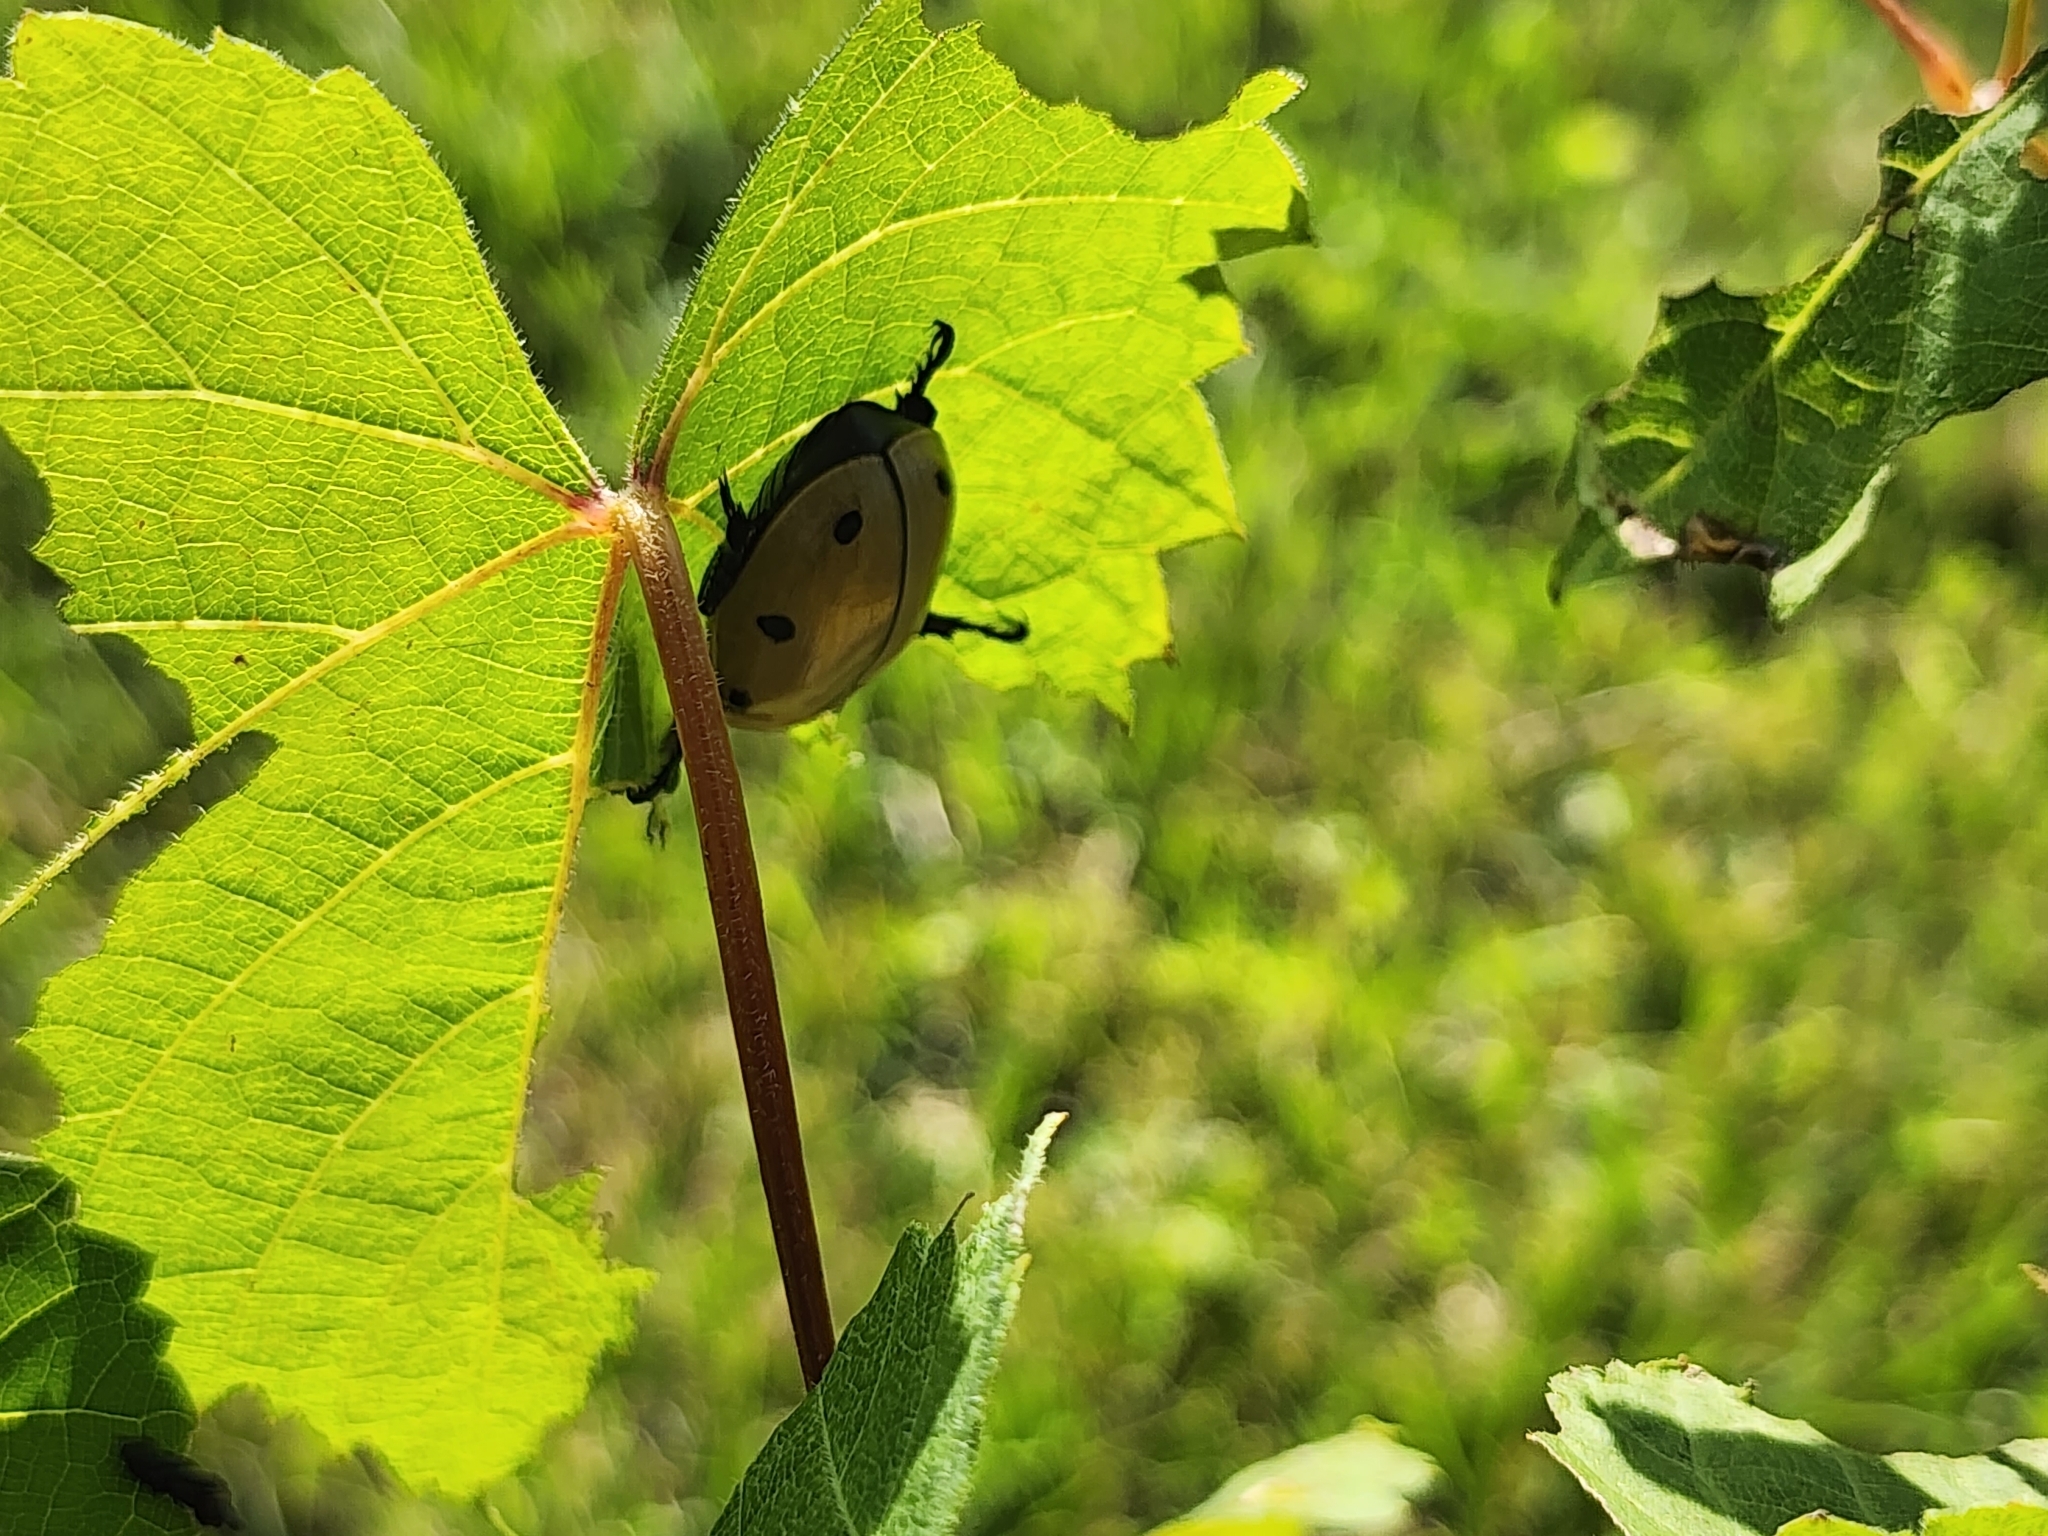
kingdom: Animalia
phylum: Arthropoda
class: Insecta
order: Coleoptera
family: Scarabaeidae
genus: Pelidnota
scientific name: Pelidnota punctata
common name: Grapevine beetle
